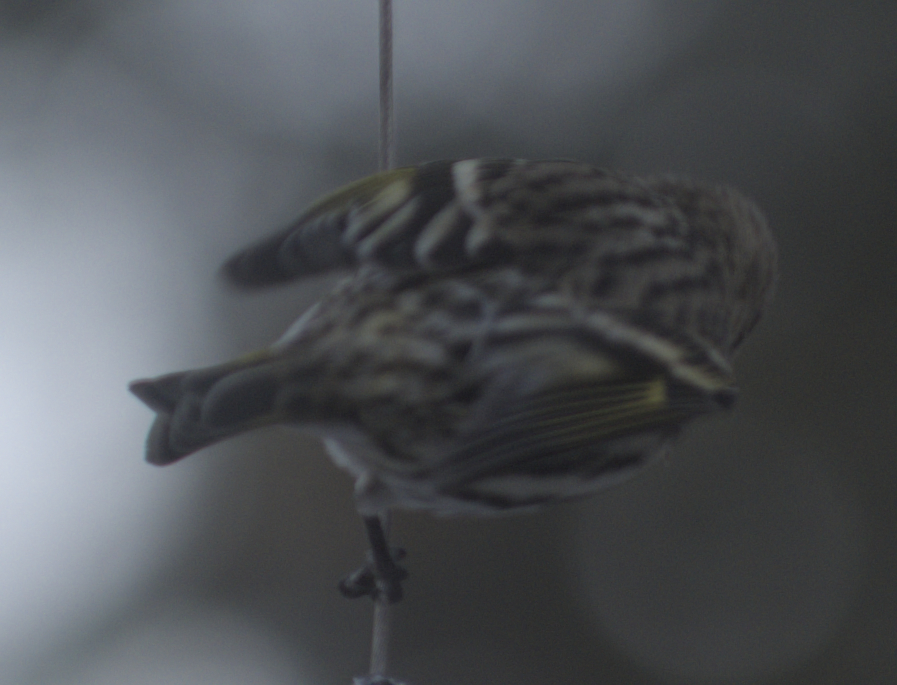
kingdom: Animalia
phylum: Chordata
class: Aves
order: Passeriformes
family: Fringillidae
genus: Spinus
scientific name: Spinus pinus
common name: Pine siskin
